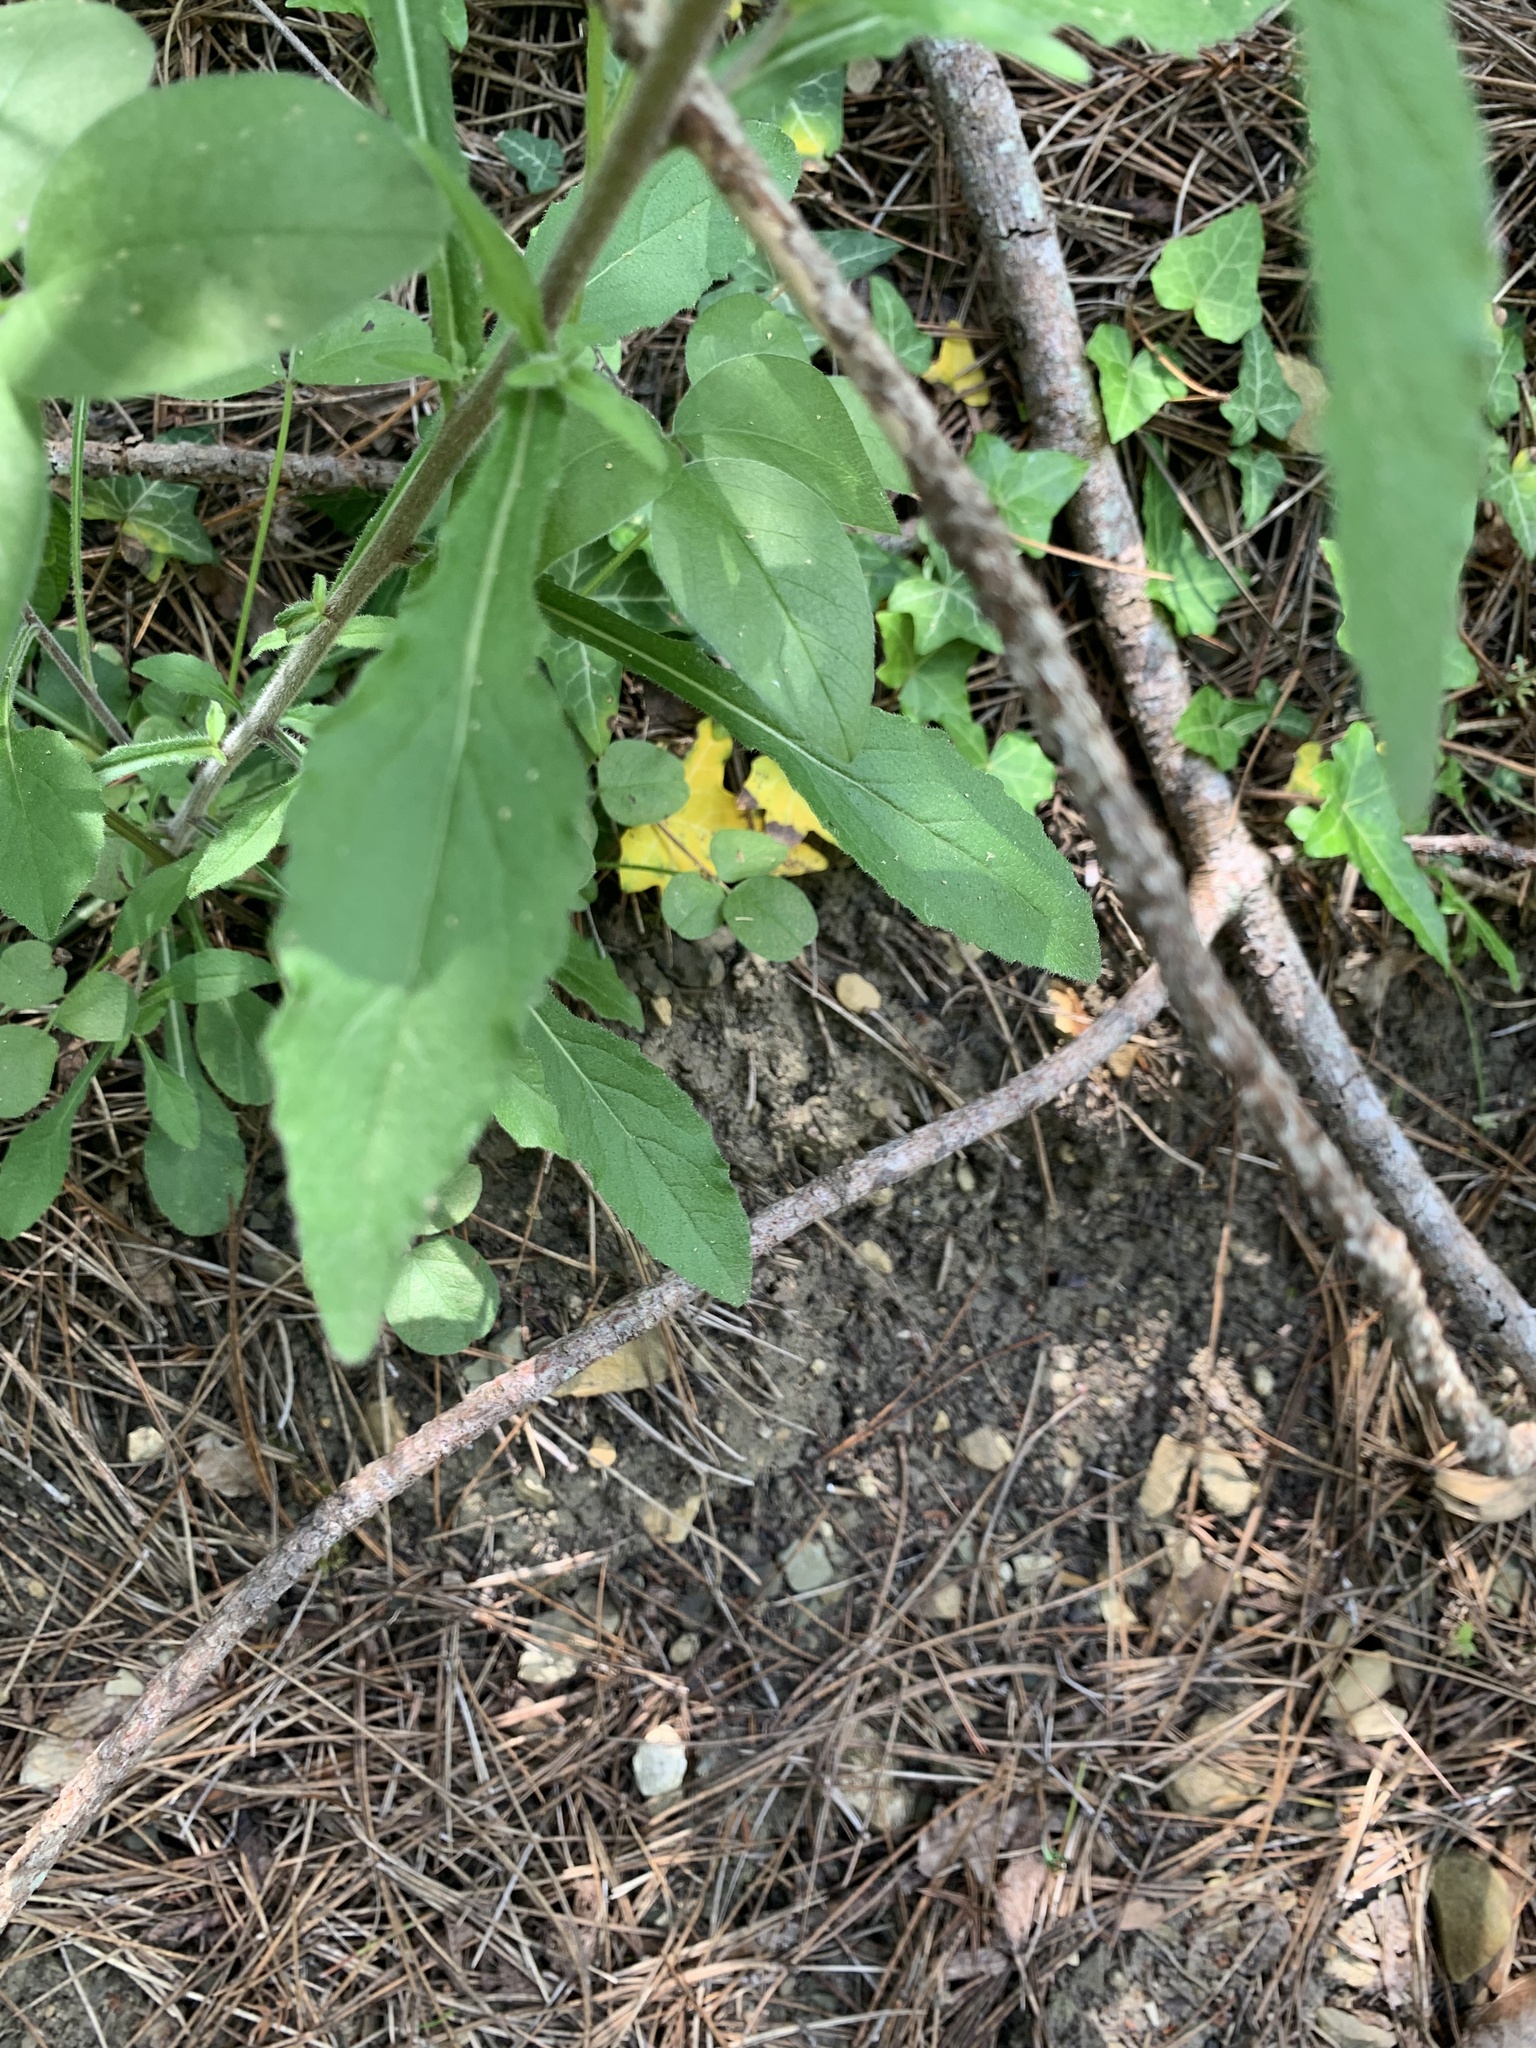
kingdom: Plantae
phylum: Tracheophyta
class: Magnoliopsida
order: Asterales
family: Campanulaceae
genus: Campanula
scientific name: Campanula komarovii
